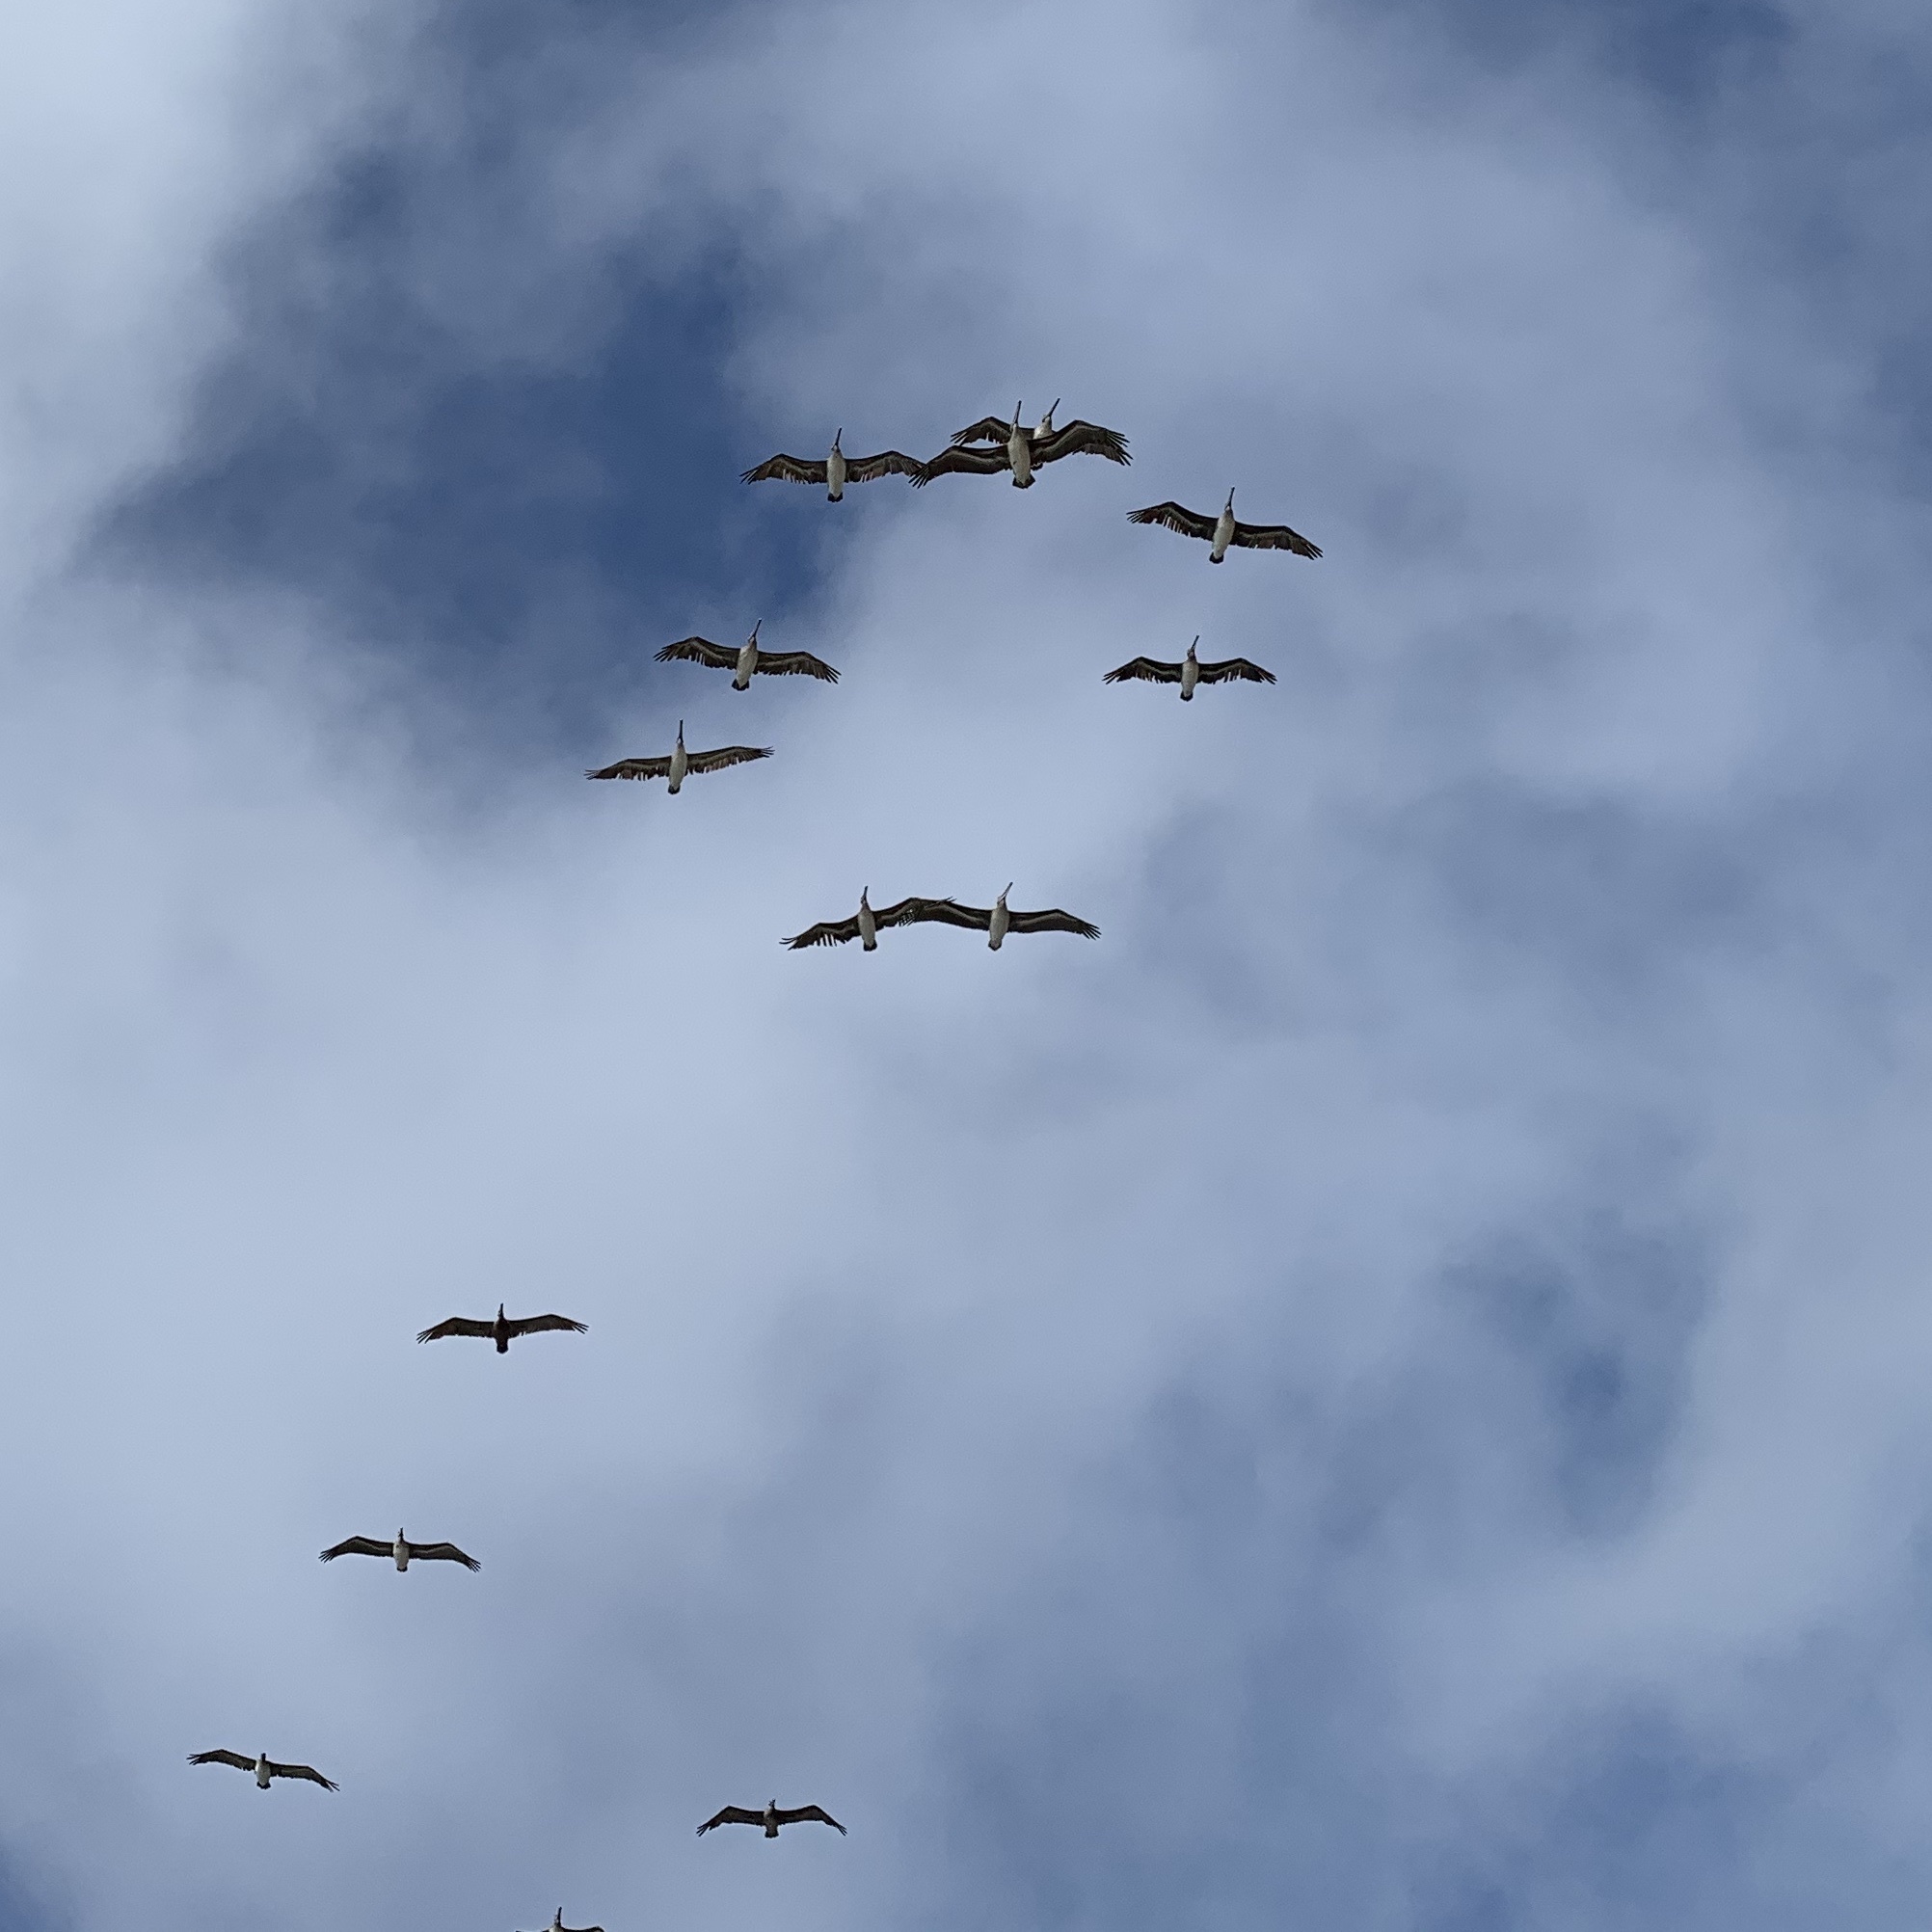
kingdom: Animalia
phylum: Chordata
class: Aves
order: Pelecaniformes
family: Pelecanidae
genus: Pelecanus
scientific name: Pelecanus occidentalis
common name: Brown pelican
